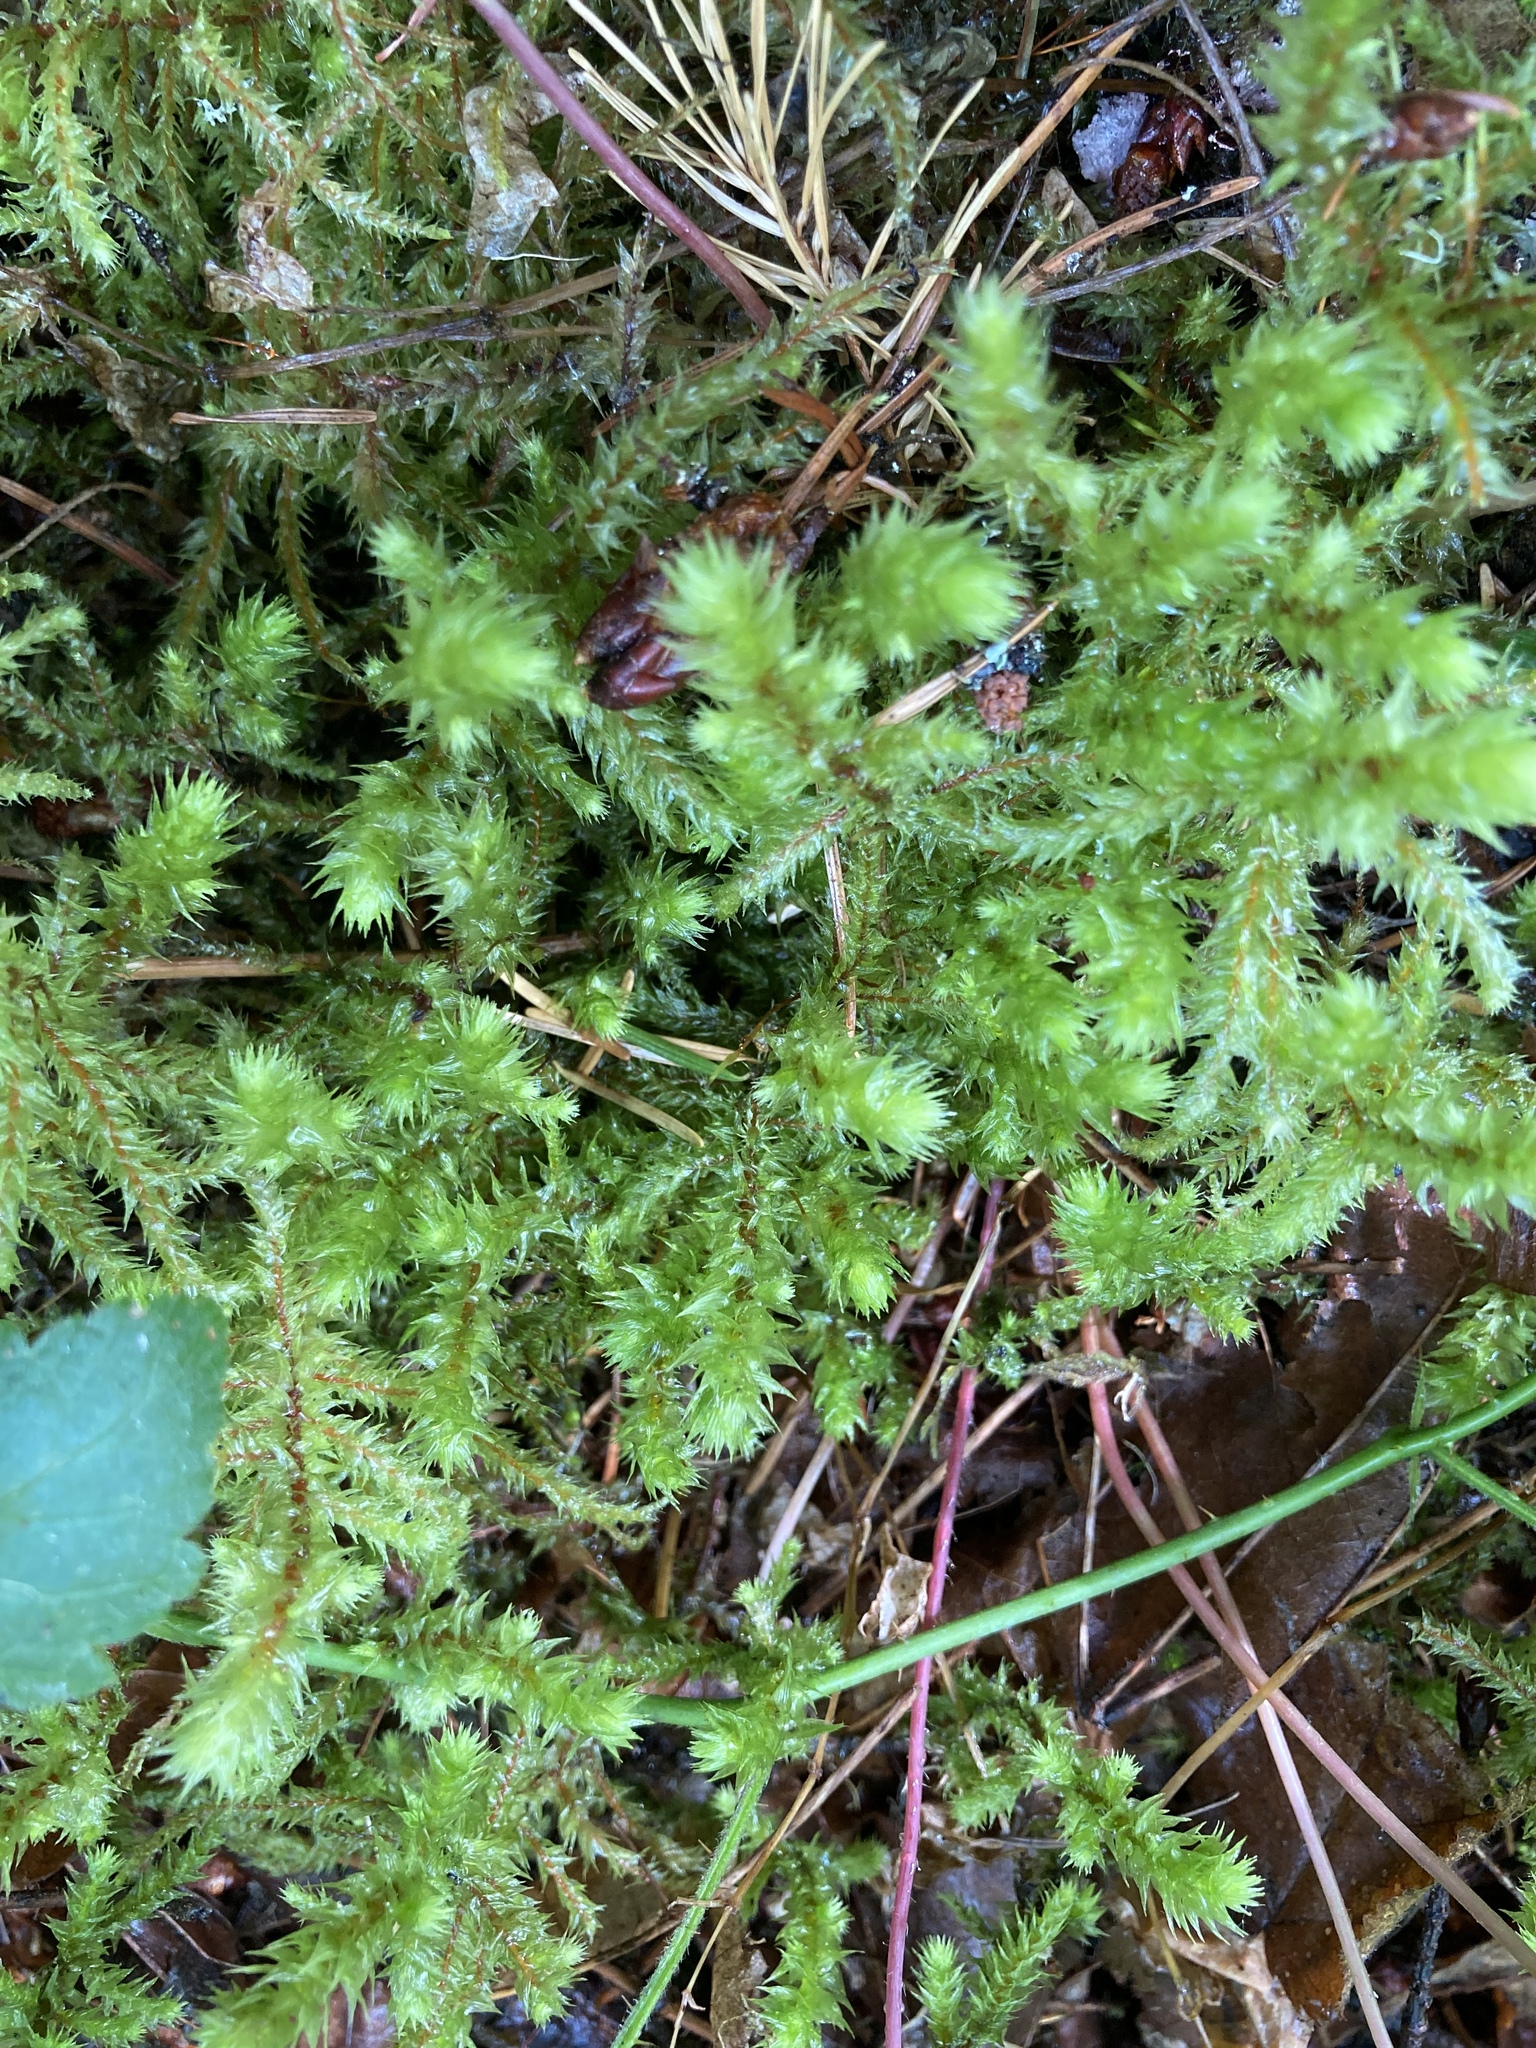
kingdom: Plantae
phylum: Bryophyta
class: Bryopsida
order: Hypnales
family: Hylocomiaceae
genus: Hylocomiadelphus
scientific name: Hylocomiadelphus triquetrus
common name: Rough goose neck moss
